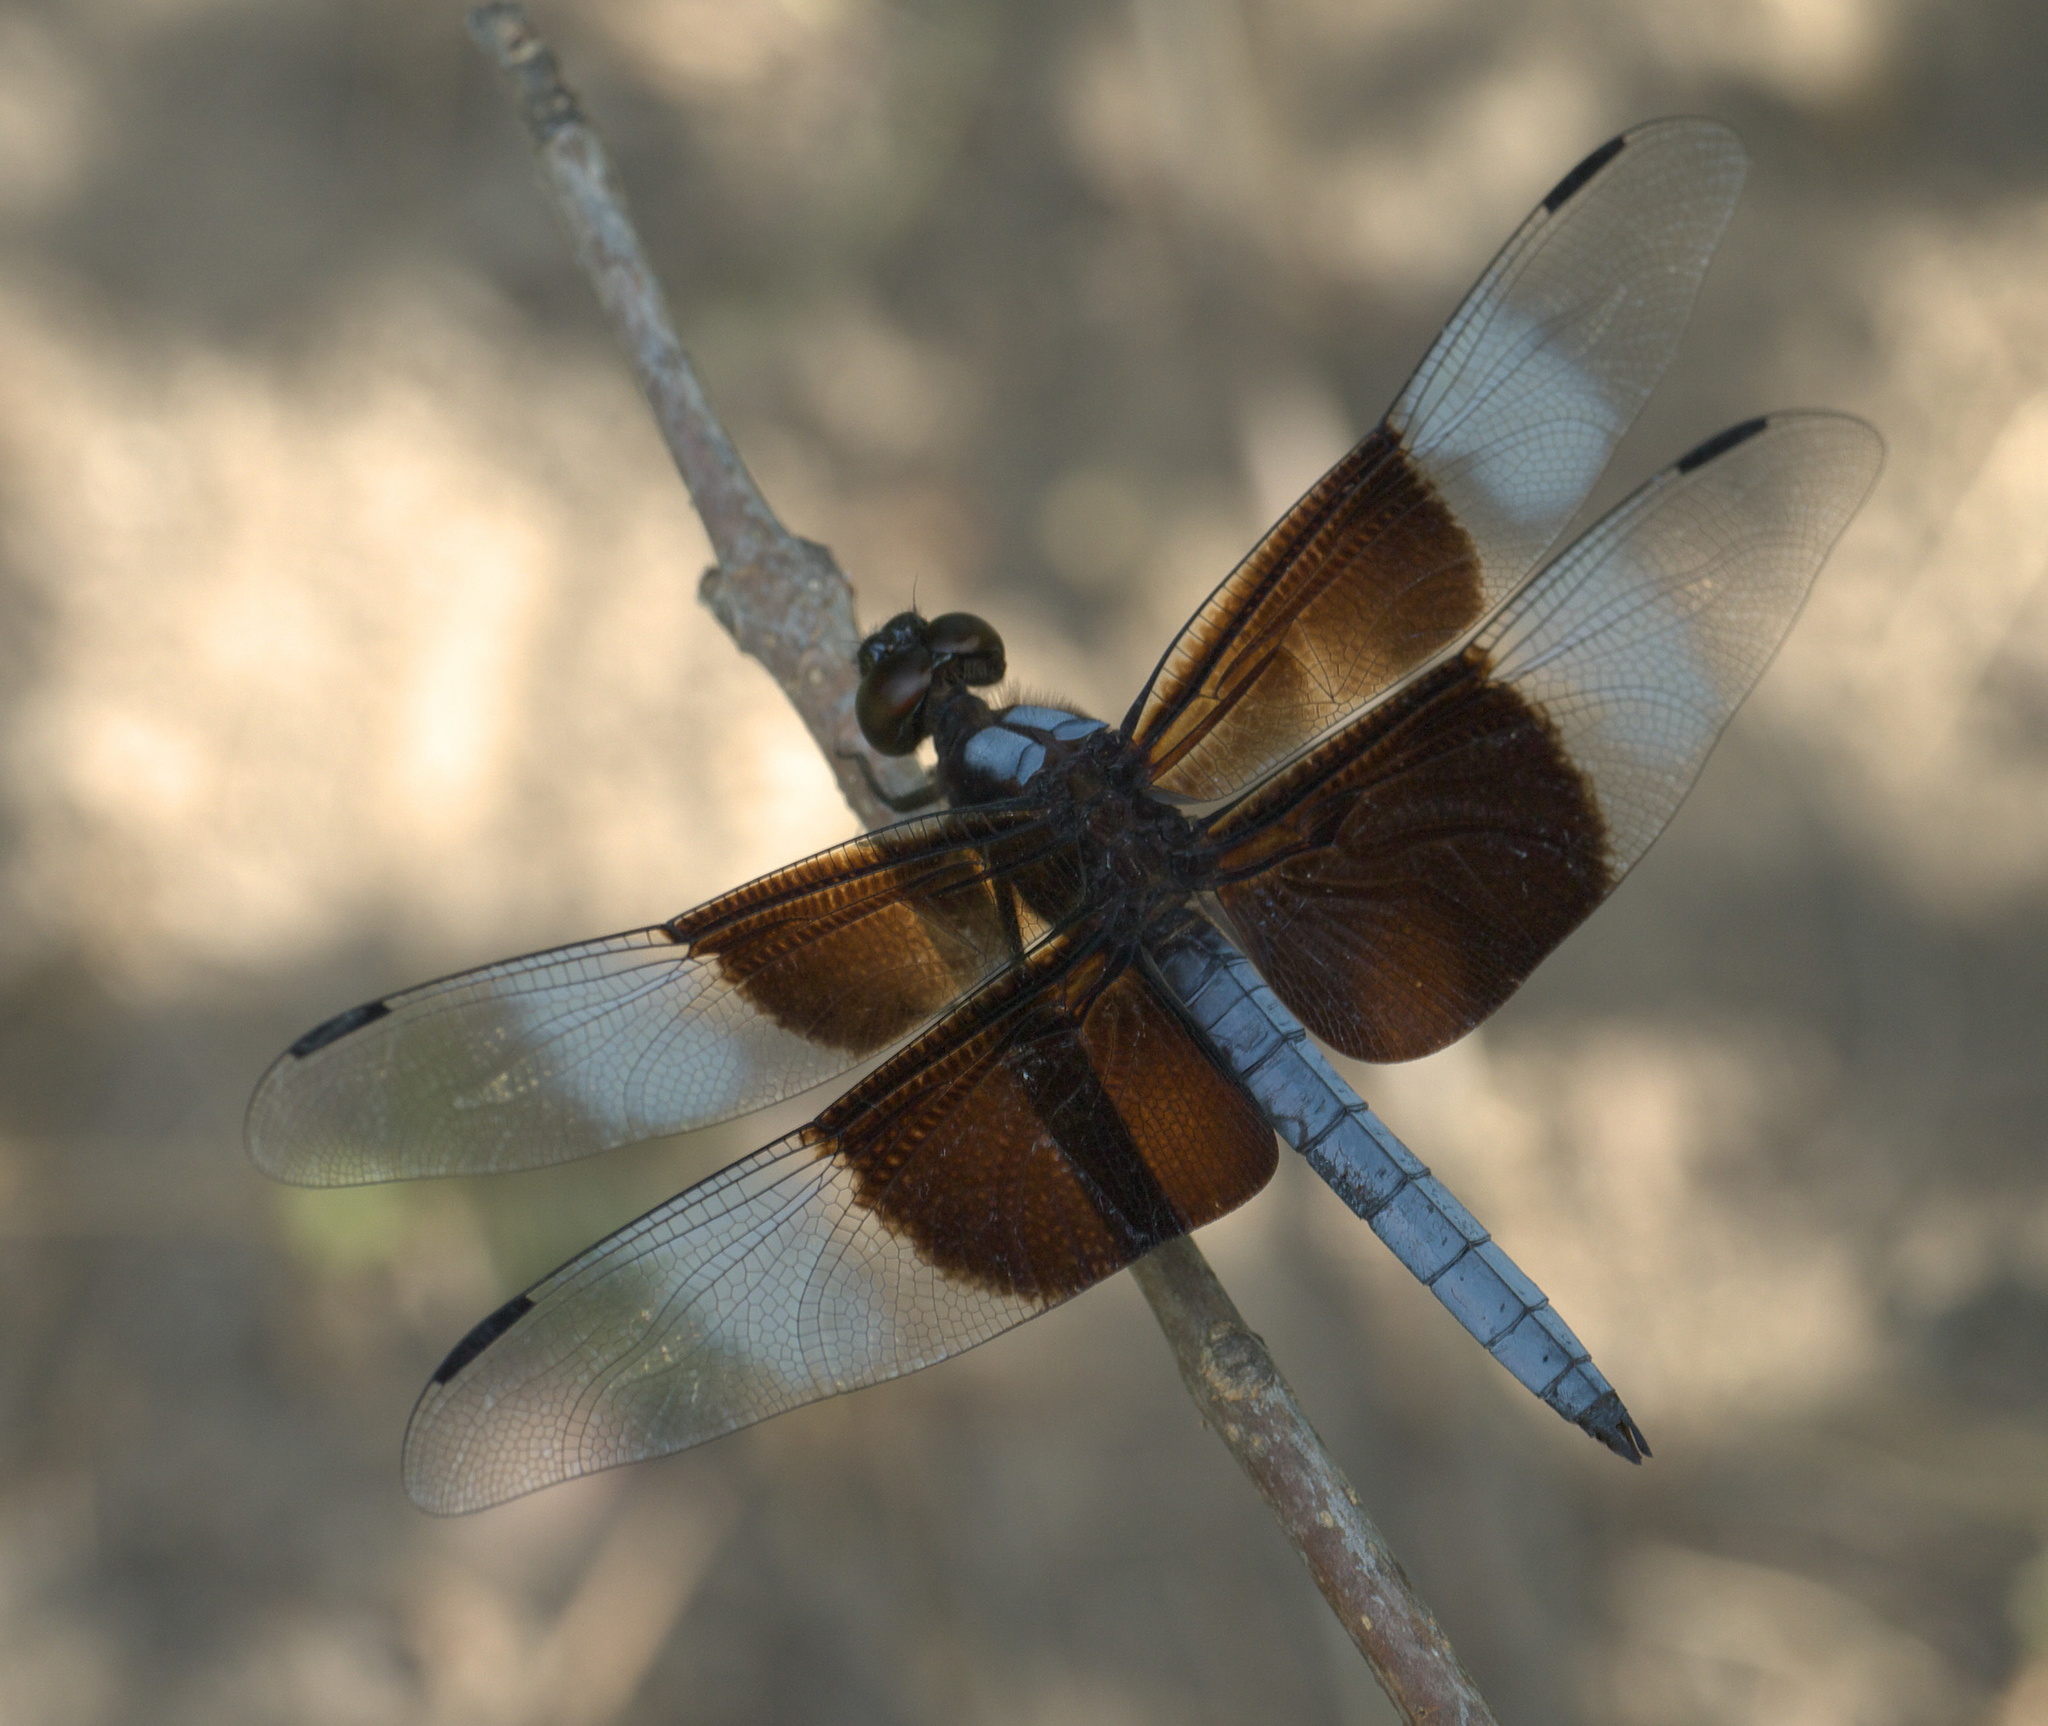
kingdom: Animalia
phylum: Arthropoda
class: Insecta
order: Odonata
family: Libellulidae
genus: Libellula
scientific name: Libellula luctuosa
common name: Widow skimmer
